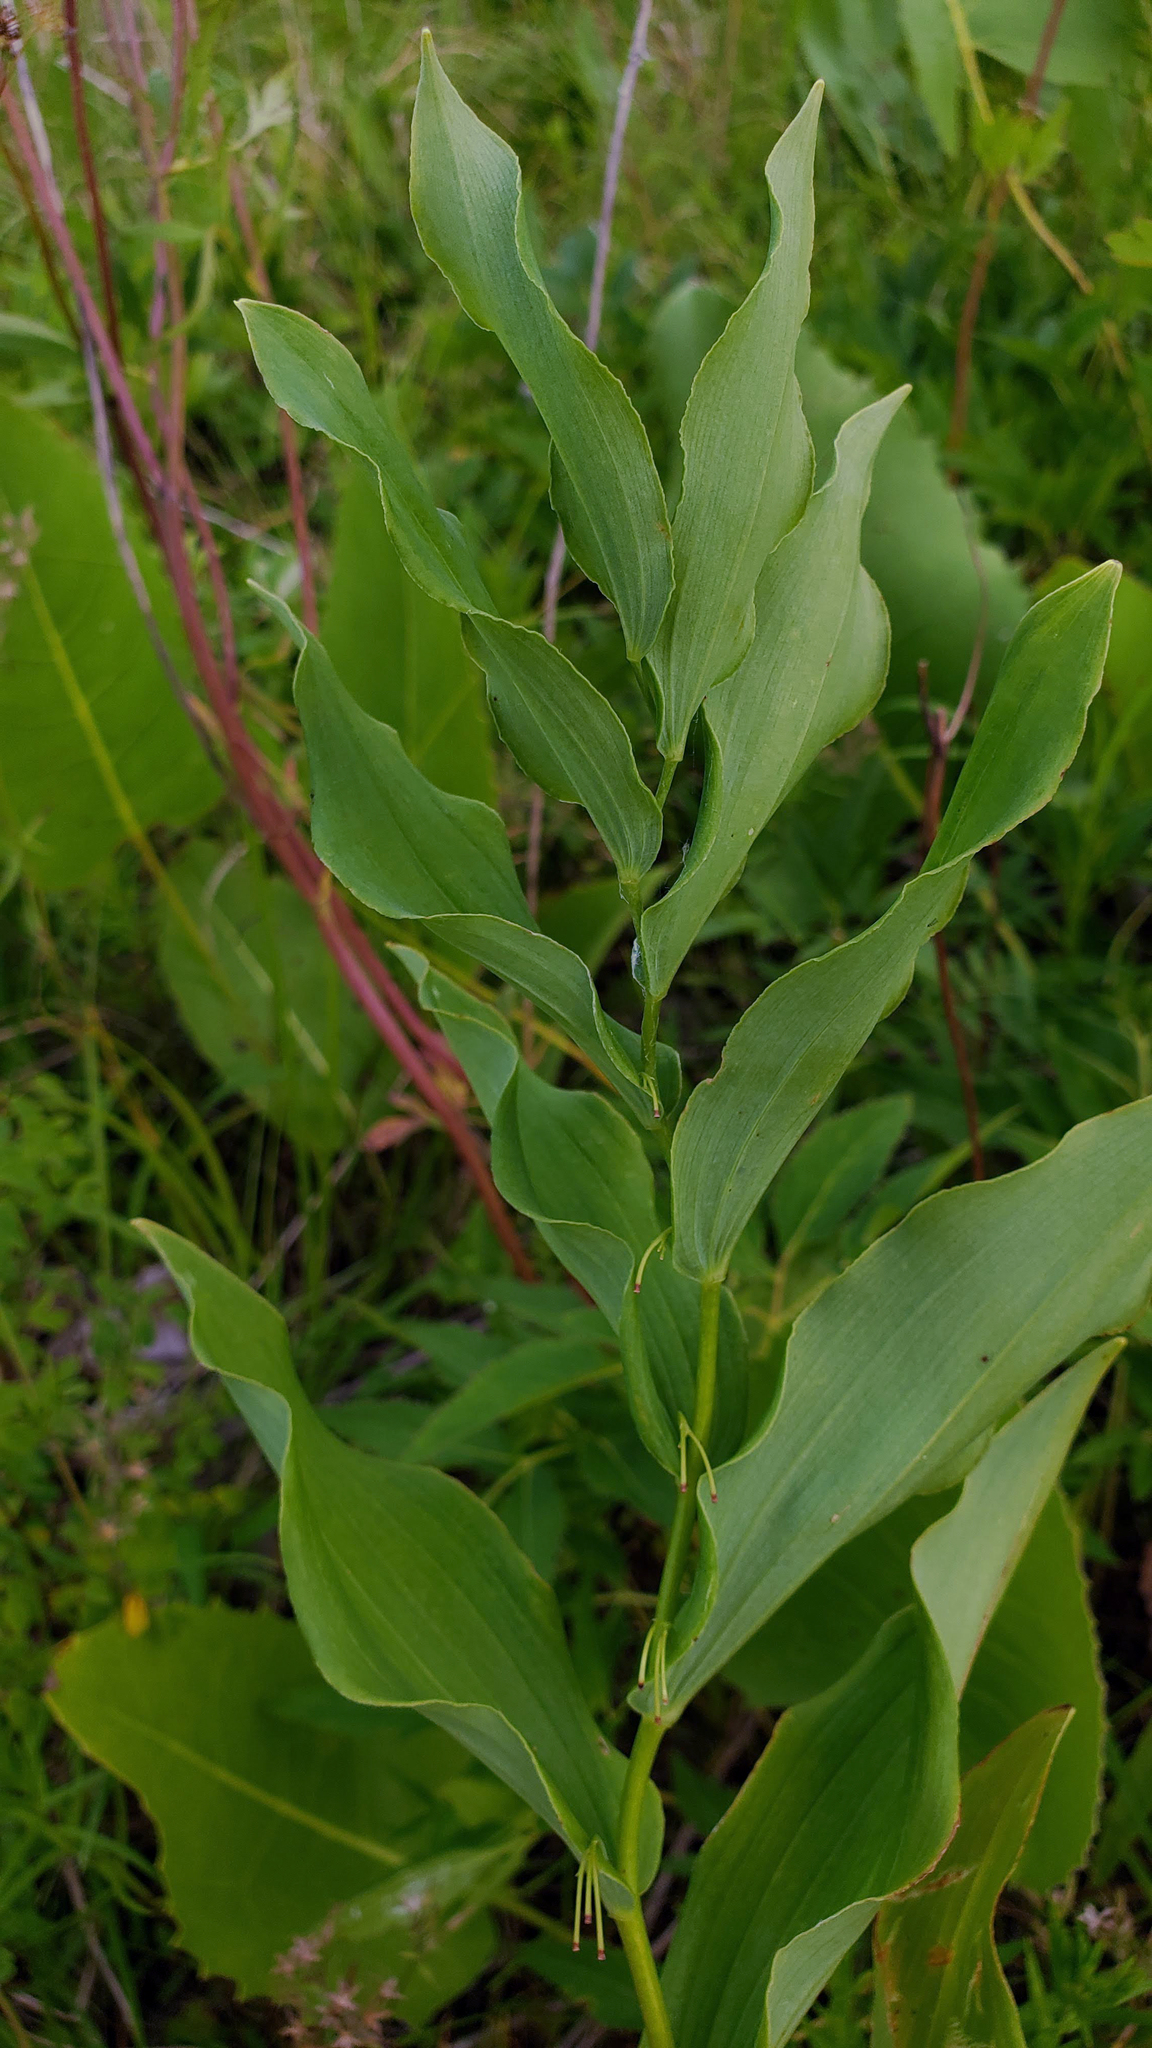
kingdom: Plantae
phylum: Tracheophyta
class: Liliopsida
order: Asparagales
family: Asparagaceae
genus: Polygonatum
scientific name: Polygonatum biflorum
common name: American solomon's-seal
